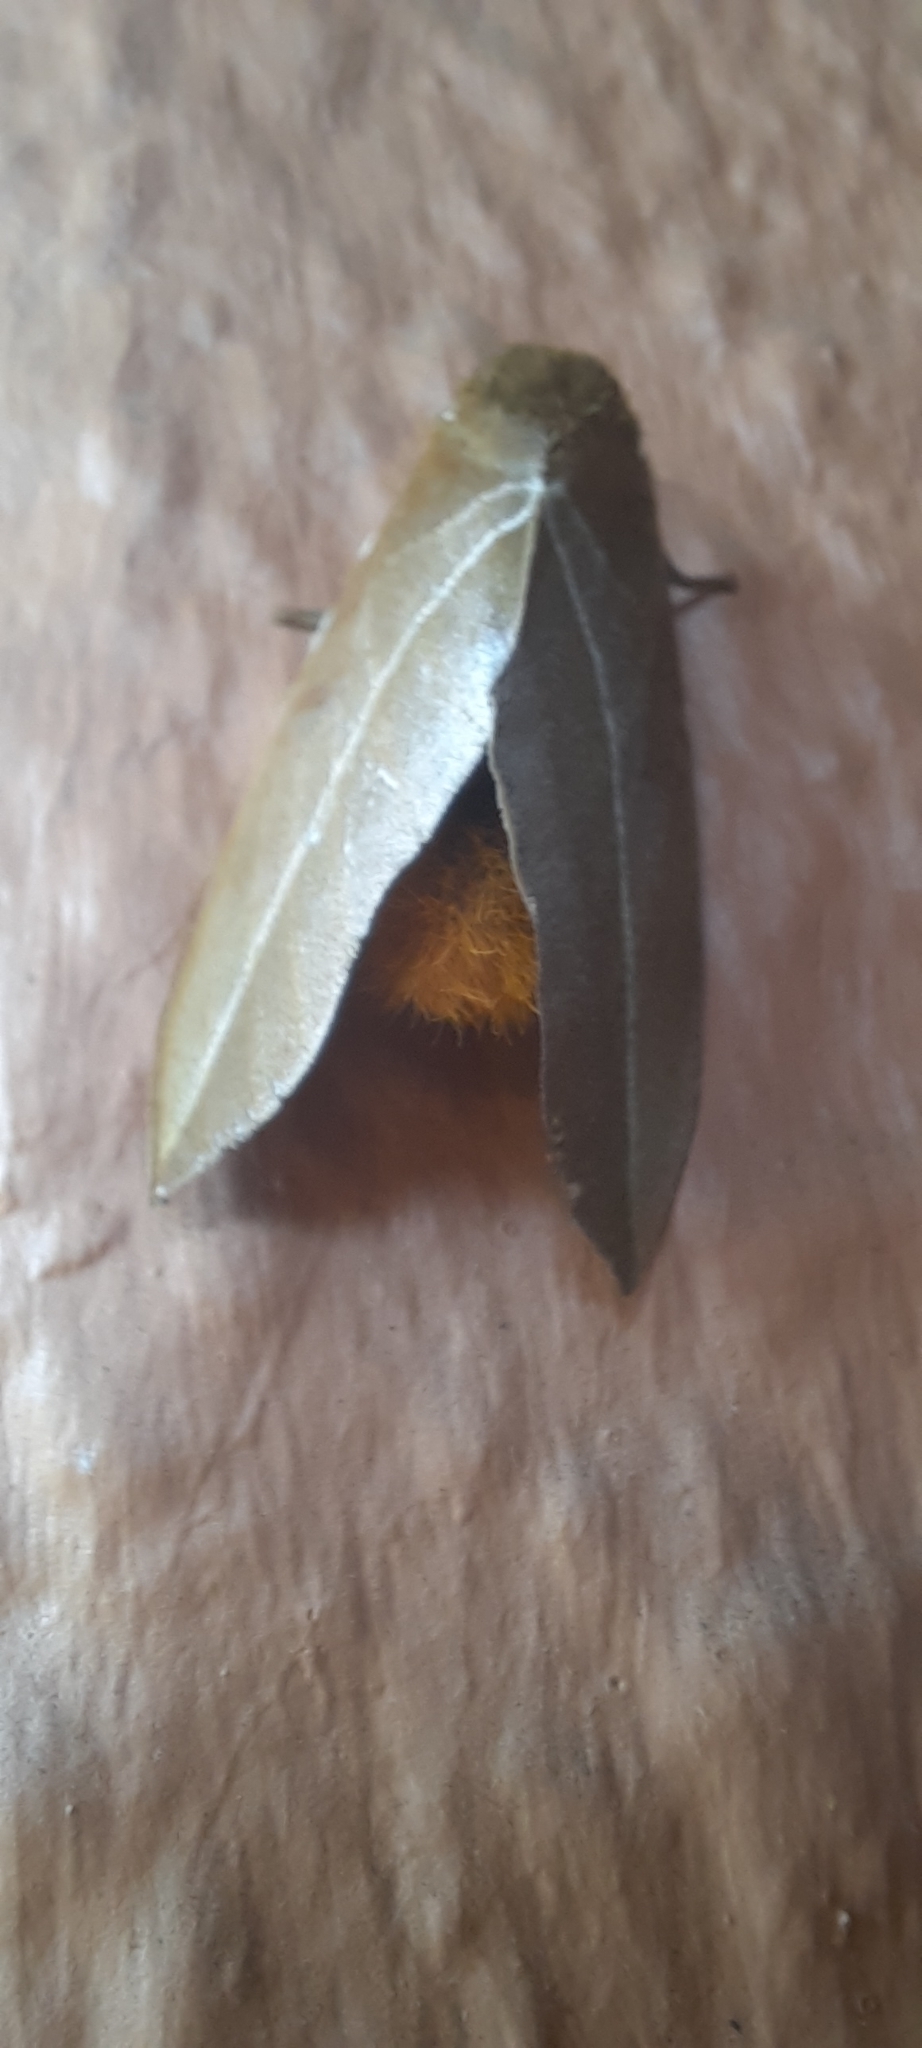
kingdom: Animalia
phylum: Arthropoda
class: Insecta
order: Lepidoptera
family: Saturniidae
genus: Automeris
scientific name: Automeris naranja
